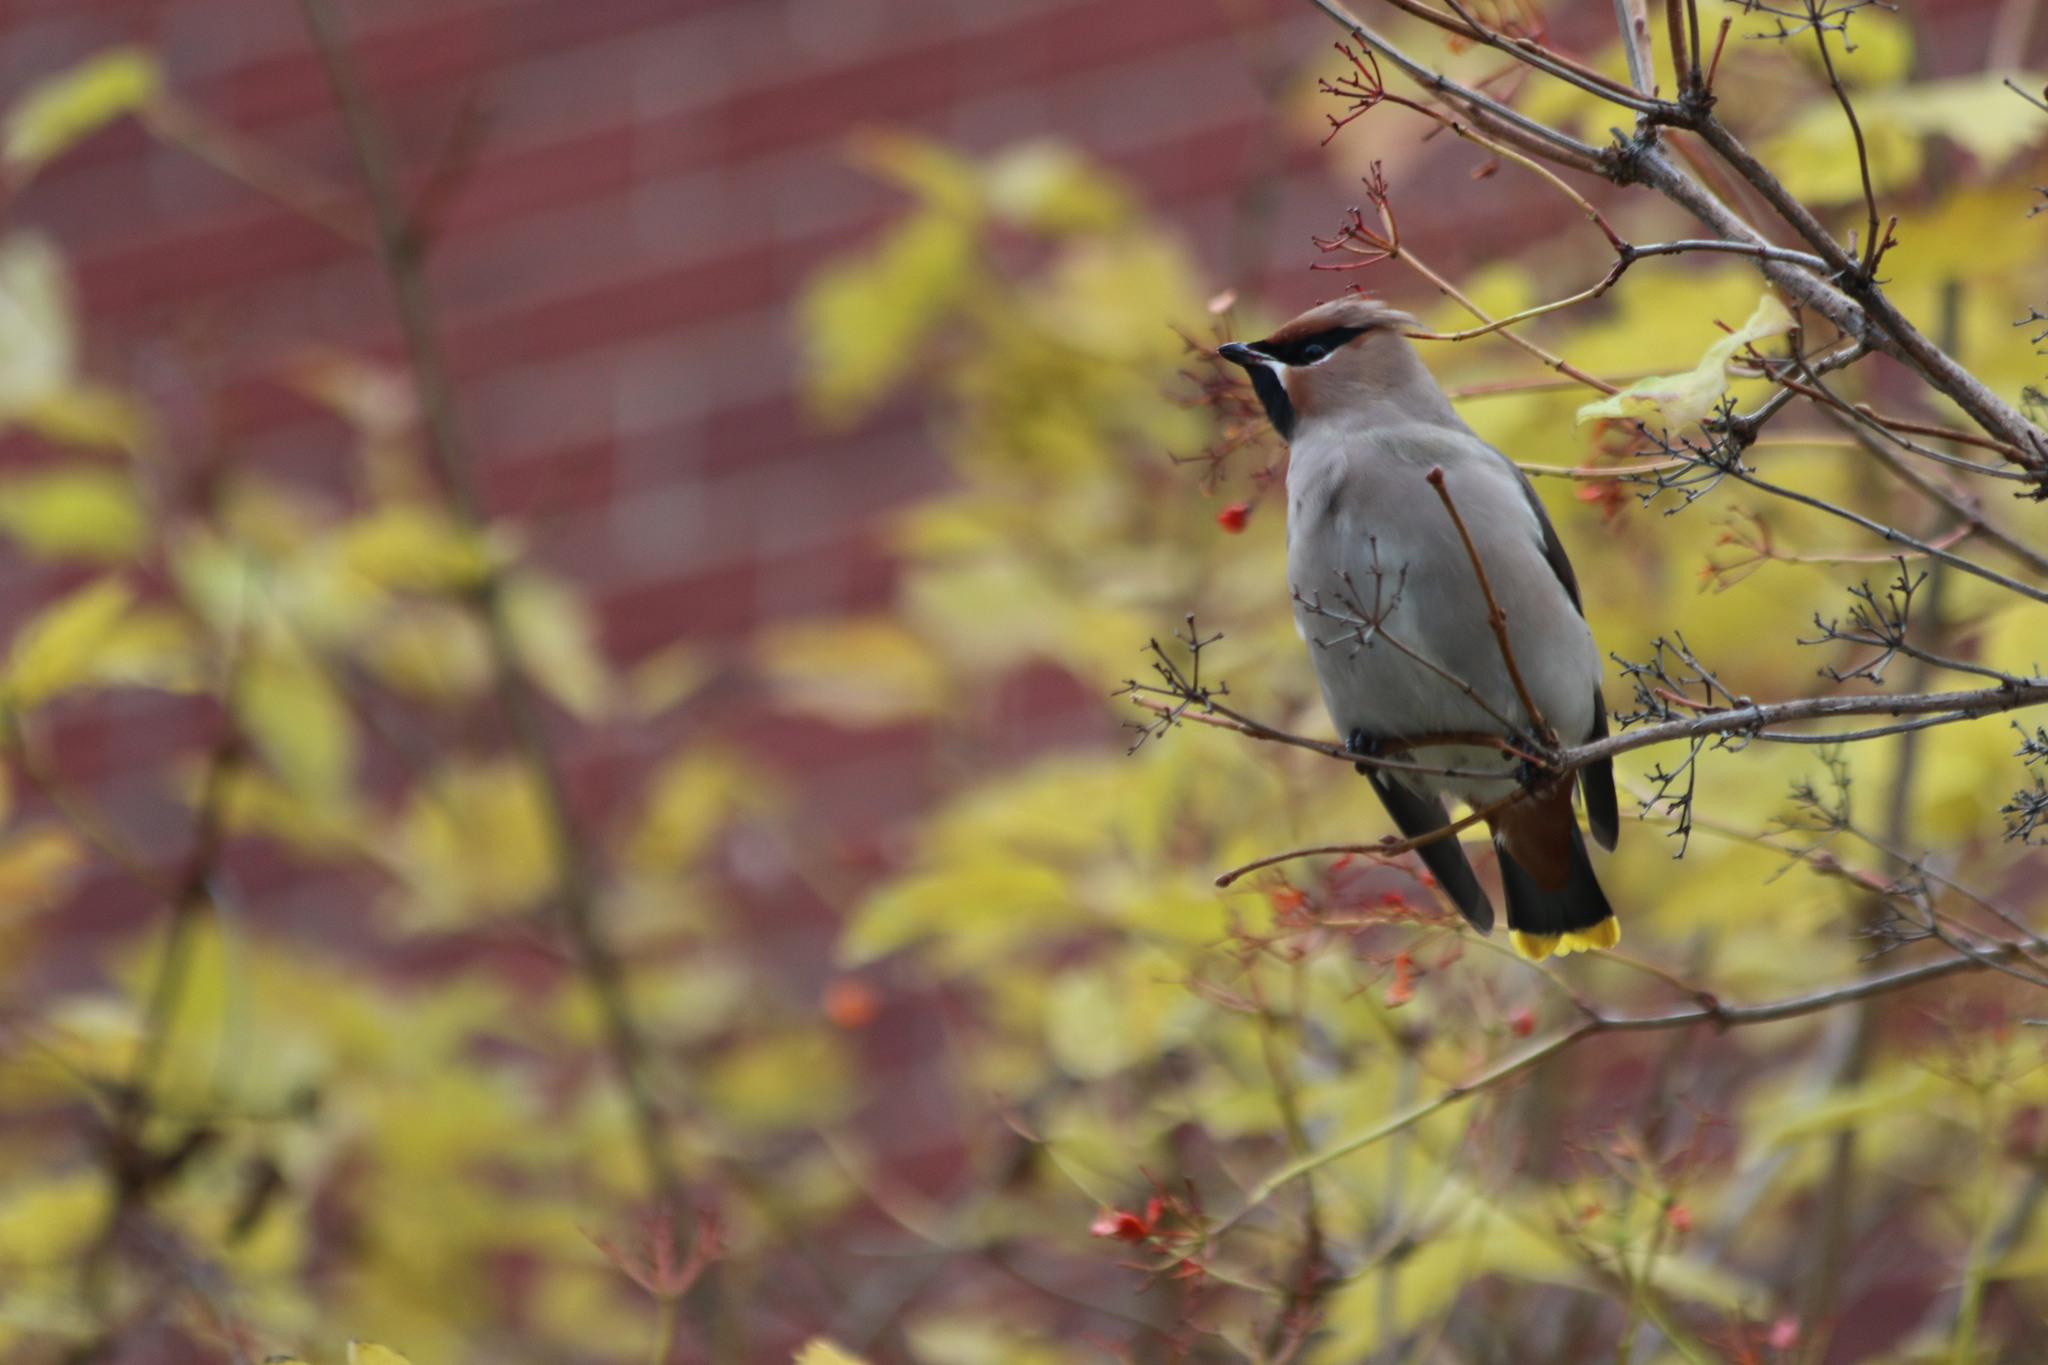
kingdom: Animalia
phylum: Chordata
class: Aves
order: Passeriformes
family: Bombycillidae
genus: Bombycilla
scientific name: Bombycilla garrulus
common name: Bohemian waxwing
